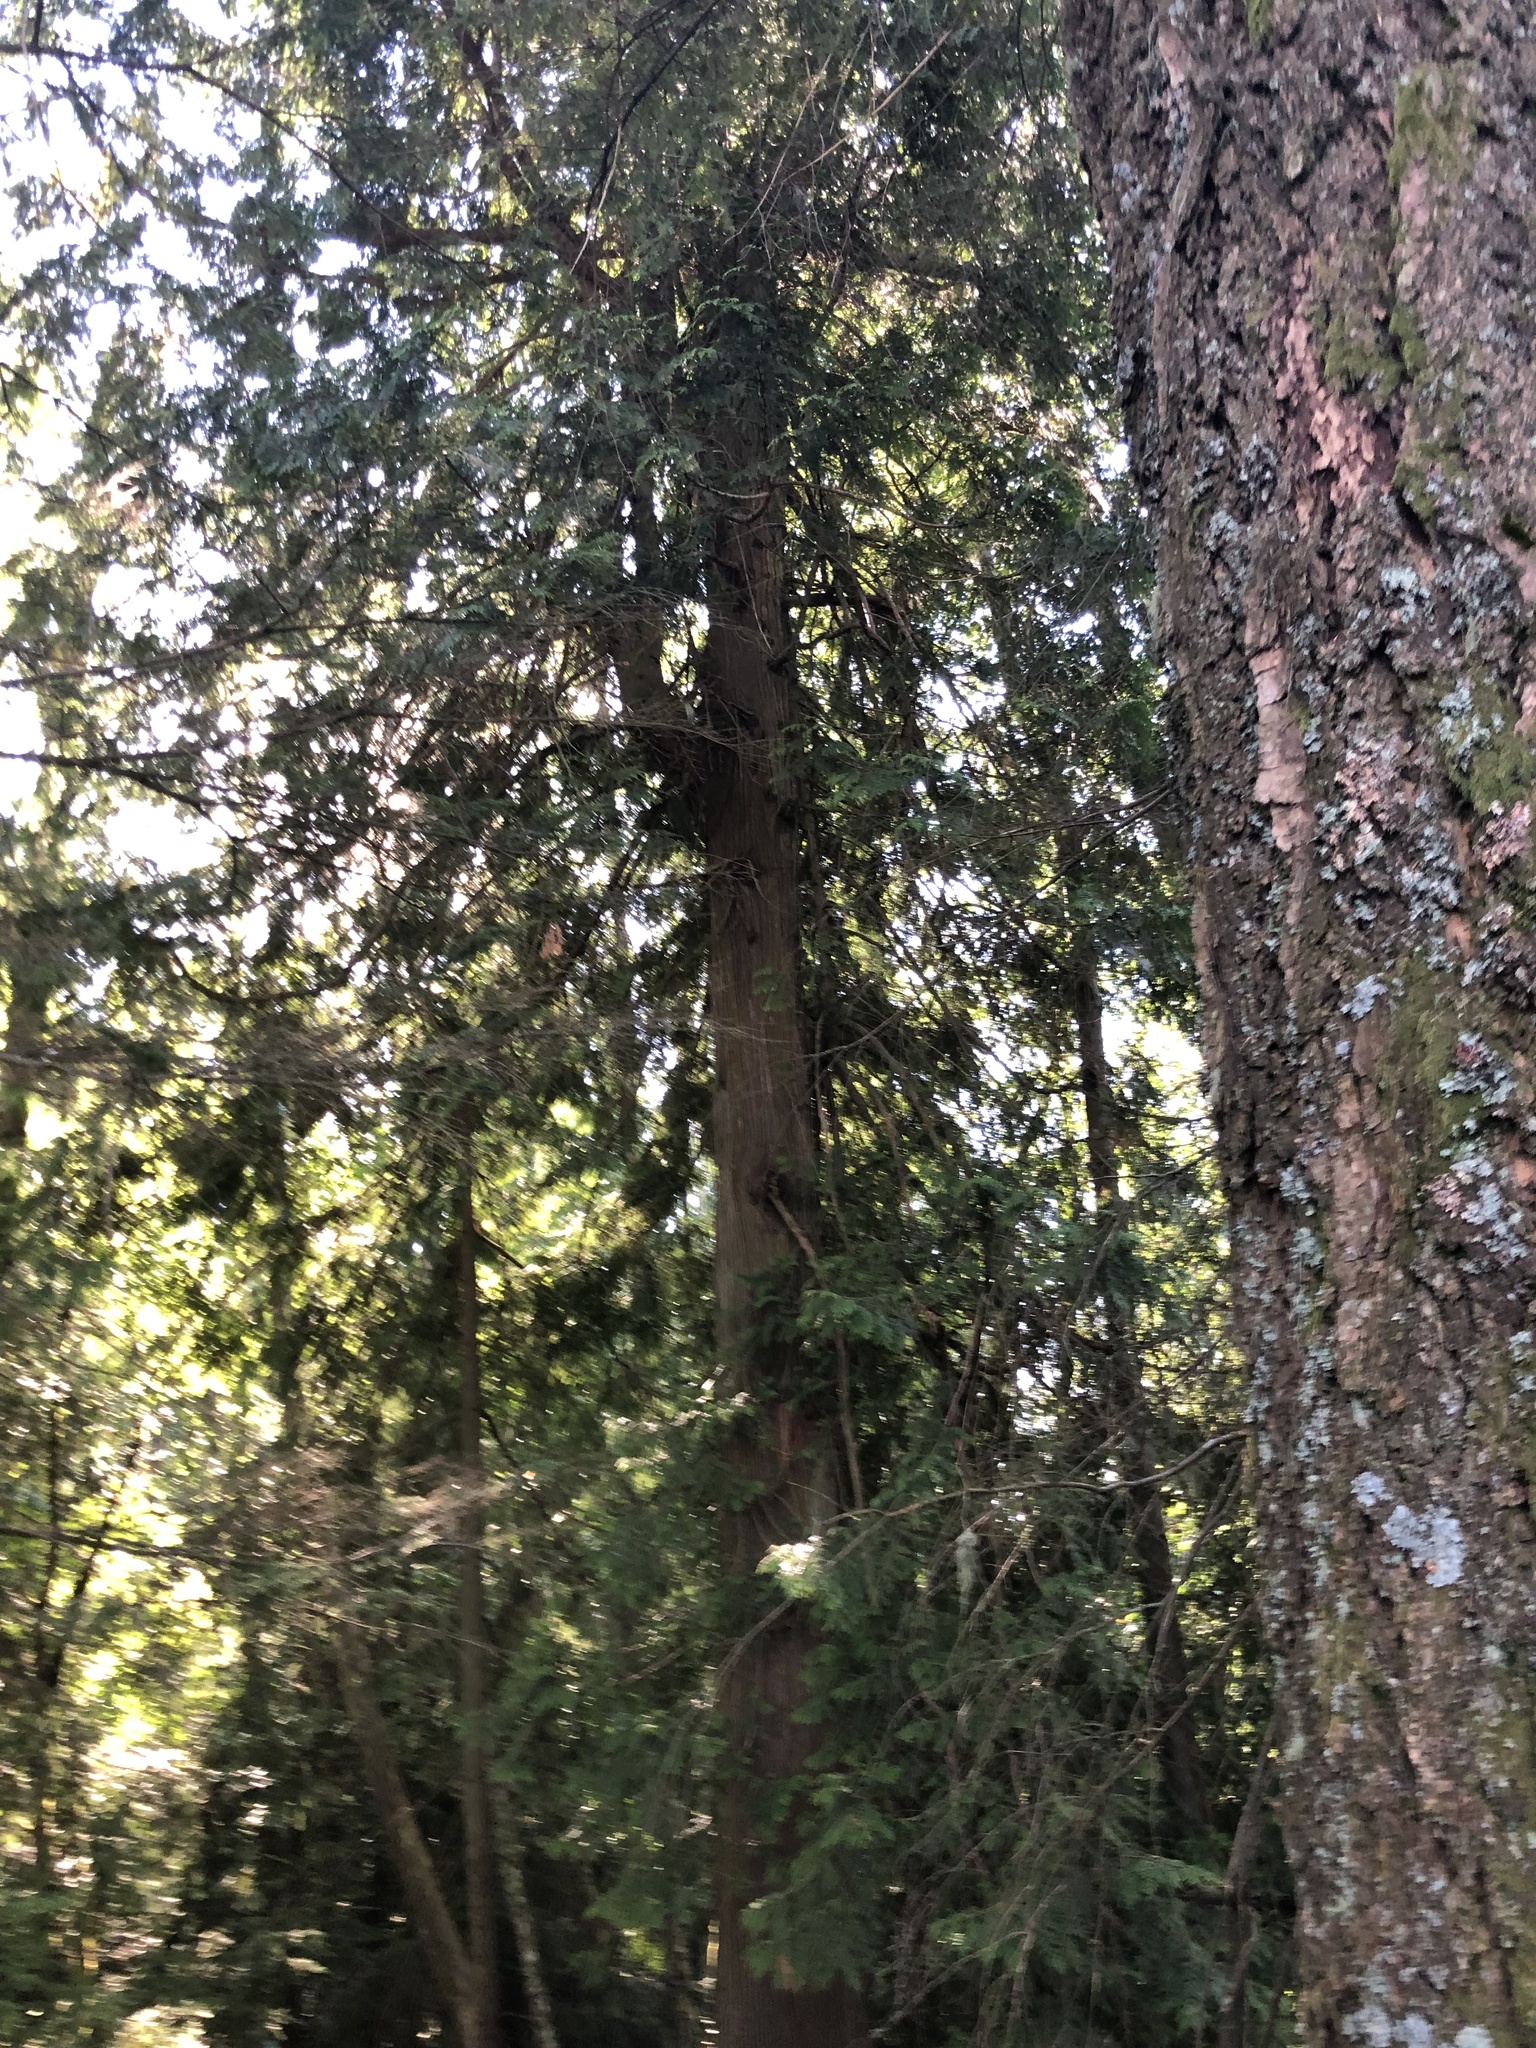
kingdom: Plantae
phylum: Tracheophyta
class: Pinopsida
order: Pinales
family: Cupressaceae
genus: Thuja
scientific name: Thuja plicata
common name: Western red-cedar
